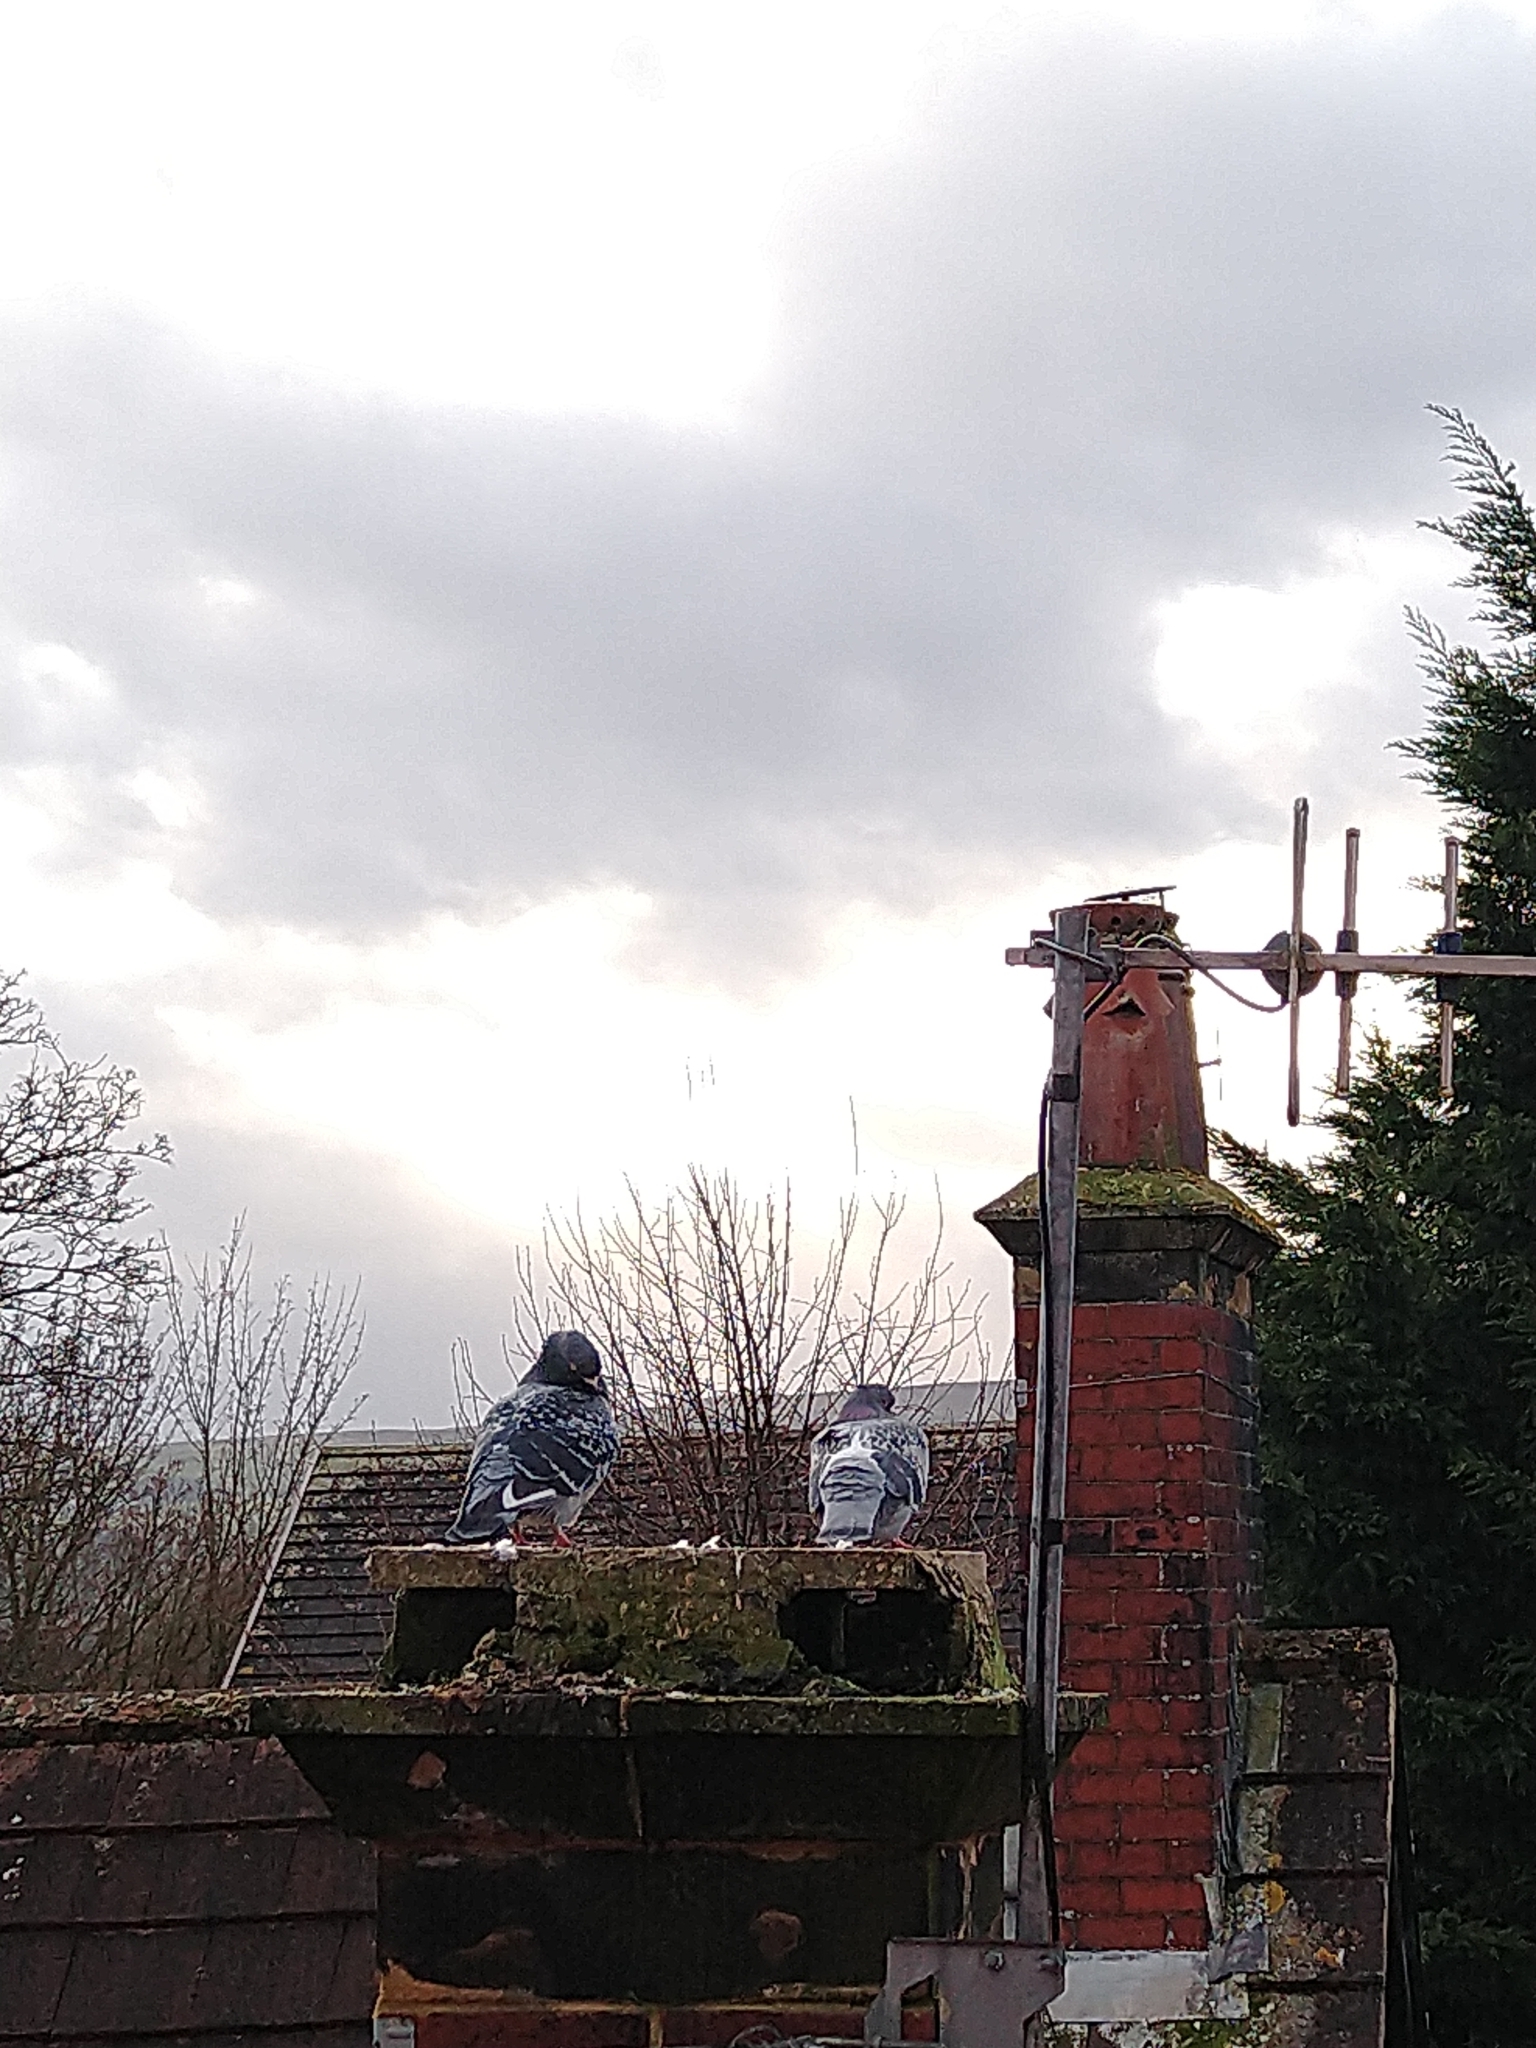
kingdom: Animalia
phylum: Chordata
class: Aves
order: Columbiformes
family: Columbidae
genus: Columba
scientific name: Columba livia
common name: Rock pigeon
